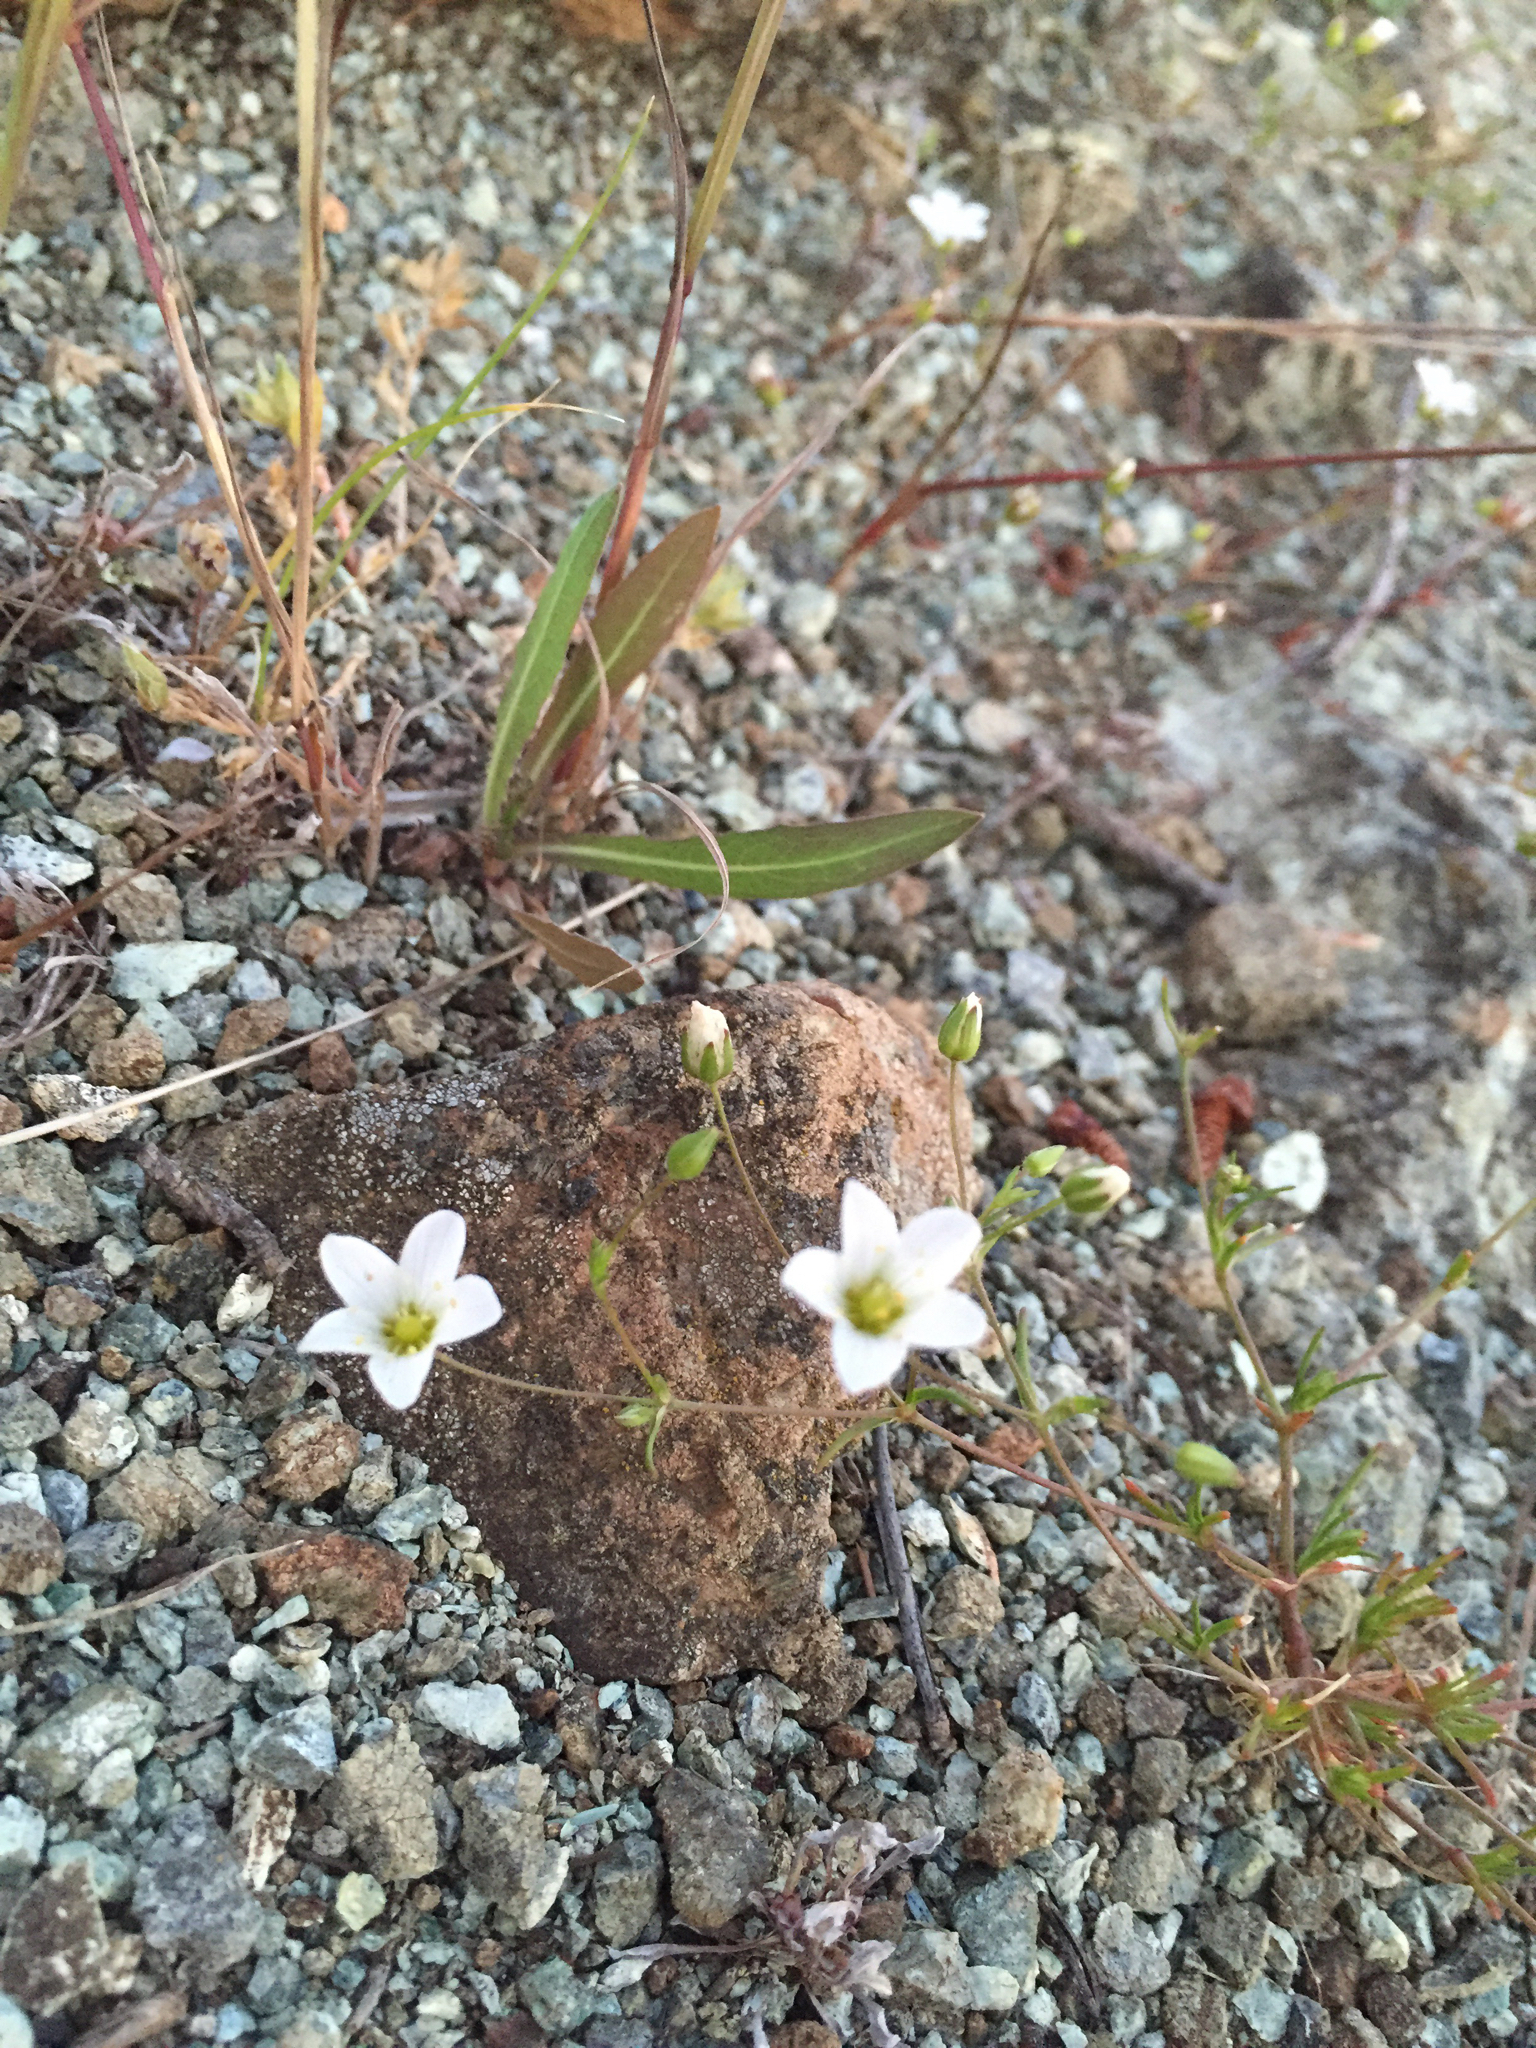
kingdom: Plantae
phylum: Tracheophyta
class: Magnoliopsida
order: Caryophyllales
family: Caryophyllaceae
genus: Sabulina
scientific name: Sabulina douglasii
